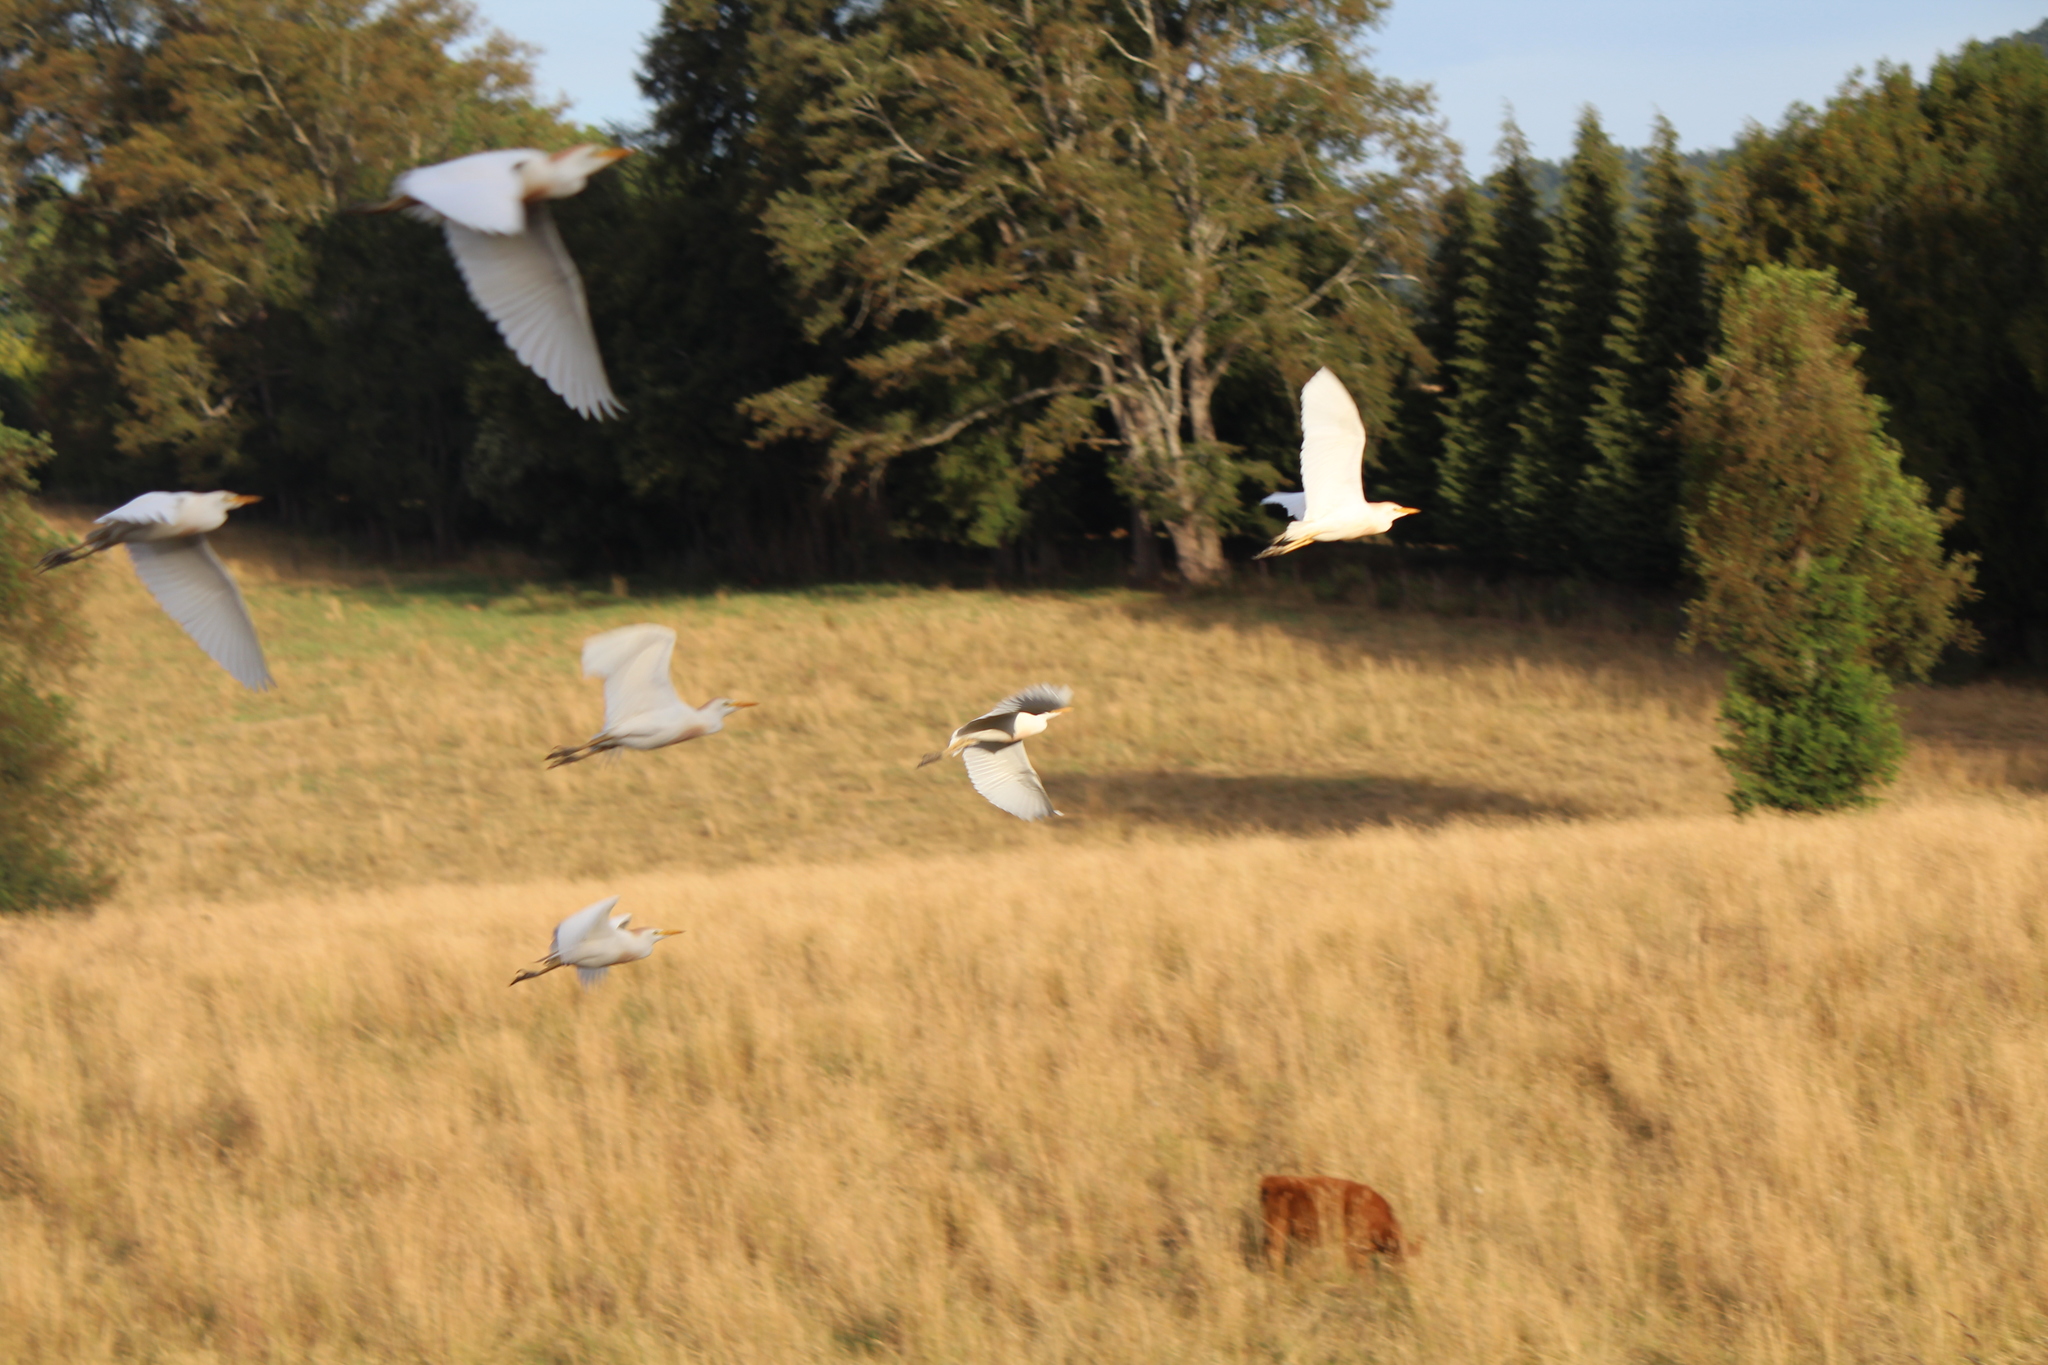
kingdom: Animalia
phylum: Chordata
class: Aves
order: Pelecaniformes
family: Ardeidae
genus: Bubulcus
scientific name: Bubulcus ibis
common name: Cattle egret
